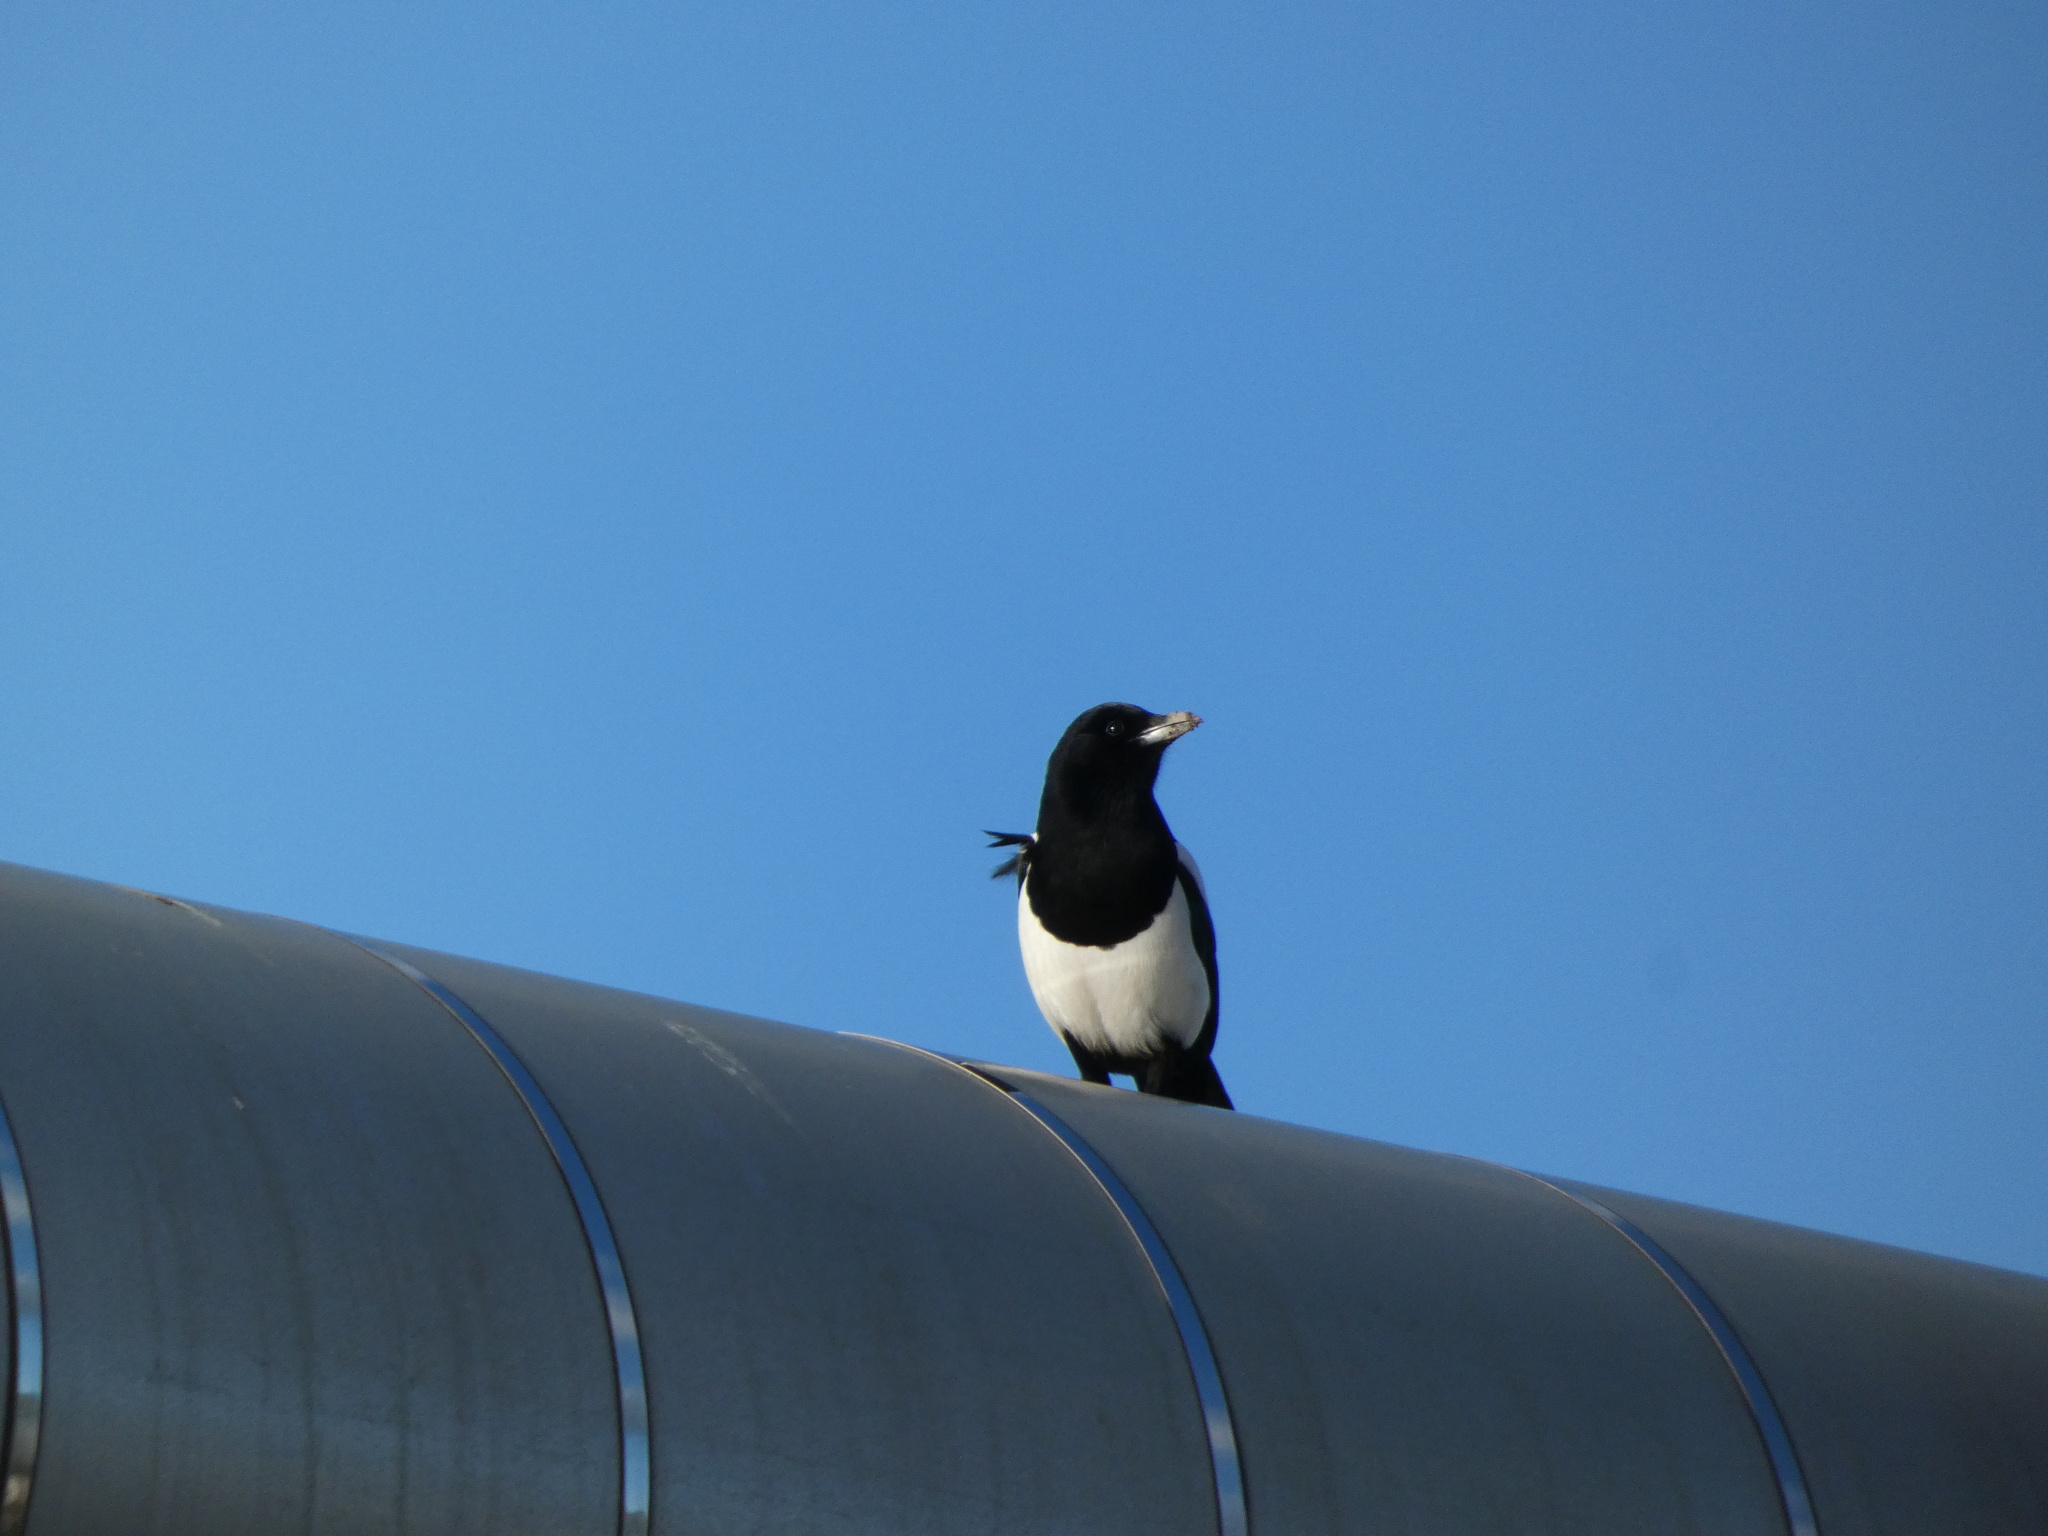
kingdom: Animalia
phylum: Chordata
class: Aves
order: Passeriformes
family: Corvidae
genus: Pica
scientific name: Pica pica
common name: Eurasian magpie
